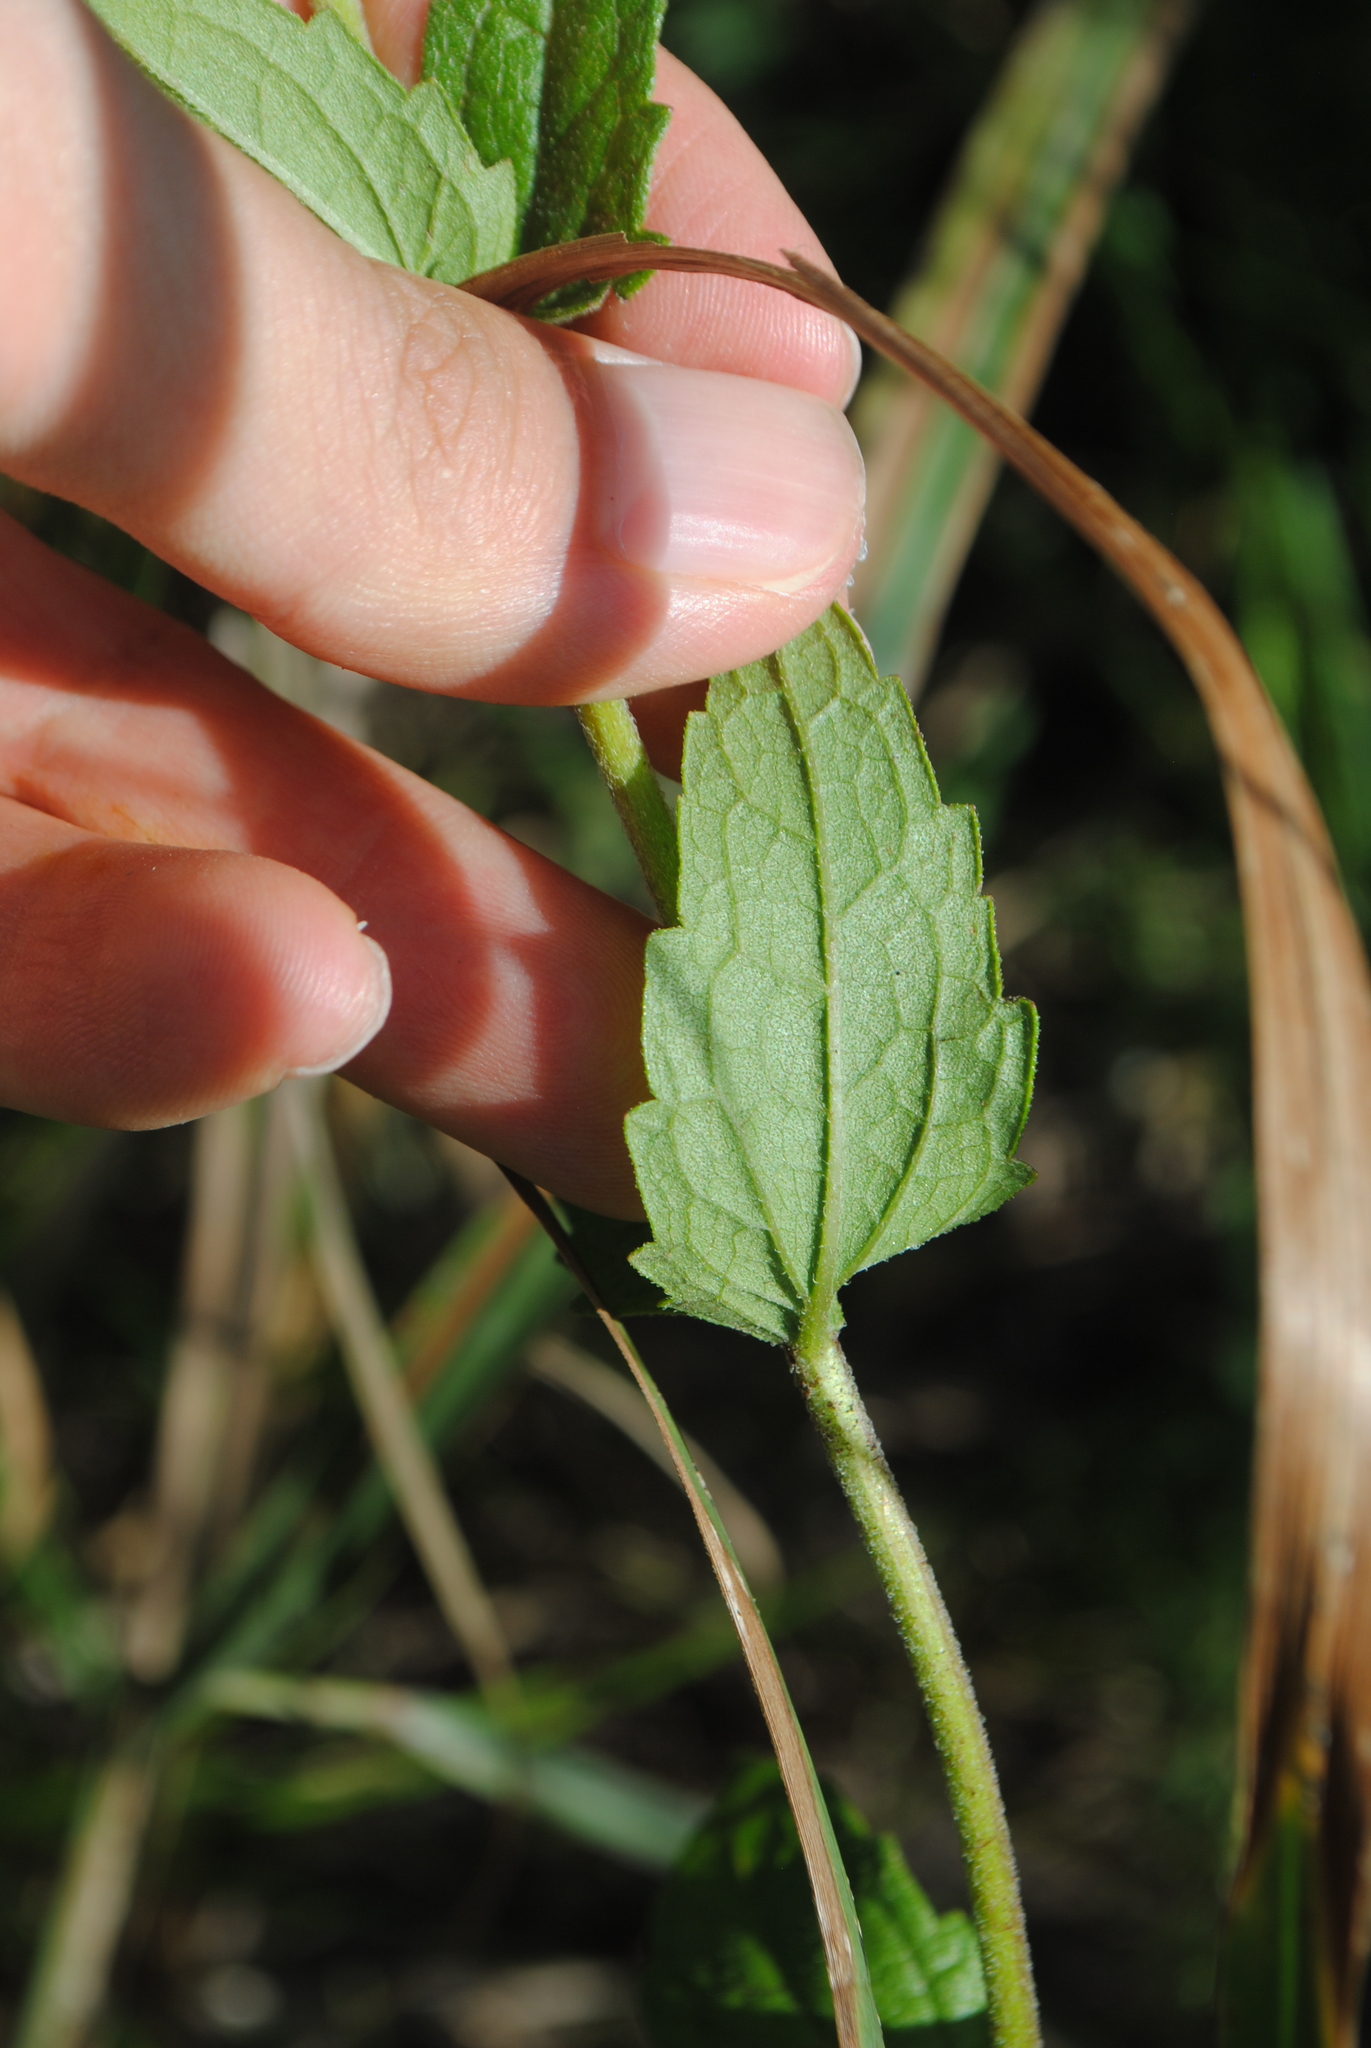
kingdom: Plantae
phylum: Tracheophyta
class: Magnoliopsida
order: Asterales
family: Asteraceae
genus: Eupatorium
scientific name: Eupatorium pilosum
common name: Rough boneset
